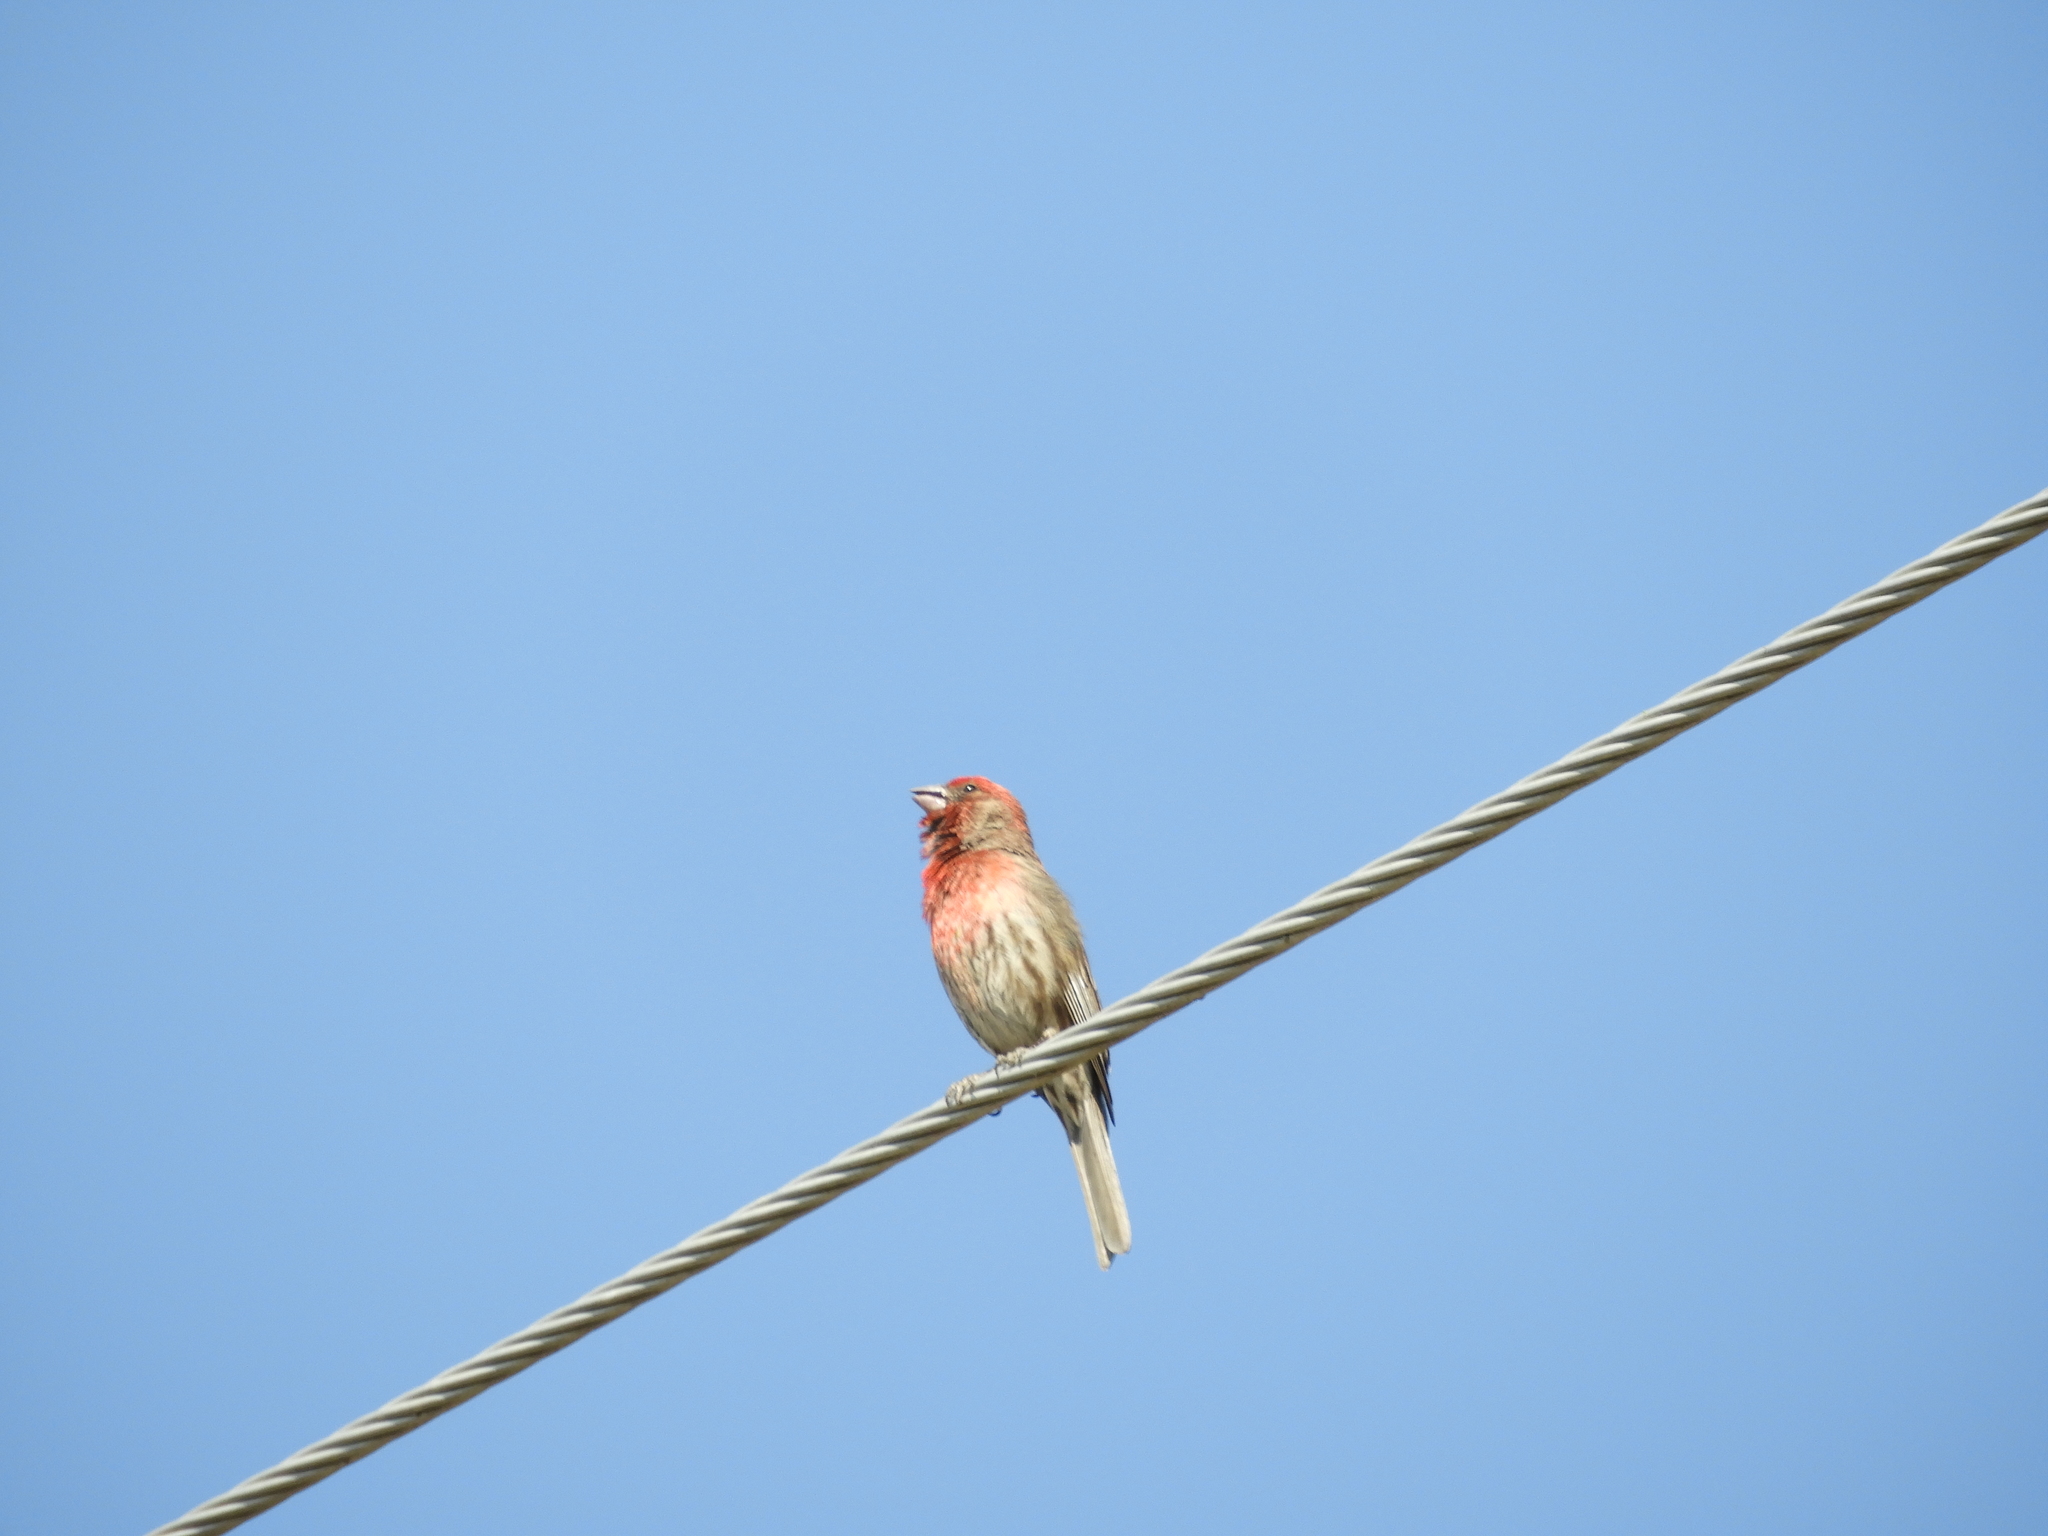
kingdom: Animalia
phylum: Chordata
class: Aves
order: Passeriformes
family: Fringillidae
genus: Haemorhous
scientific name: Haemorhous mexicanus
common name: House finch
